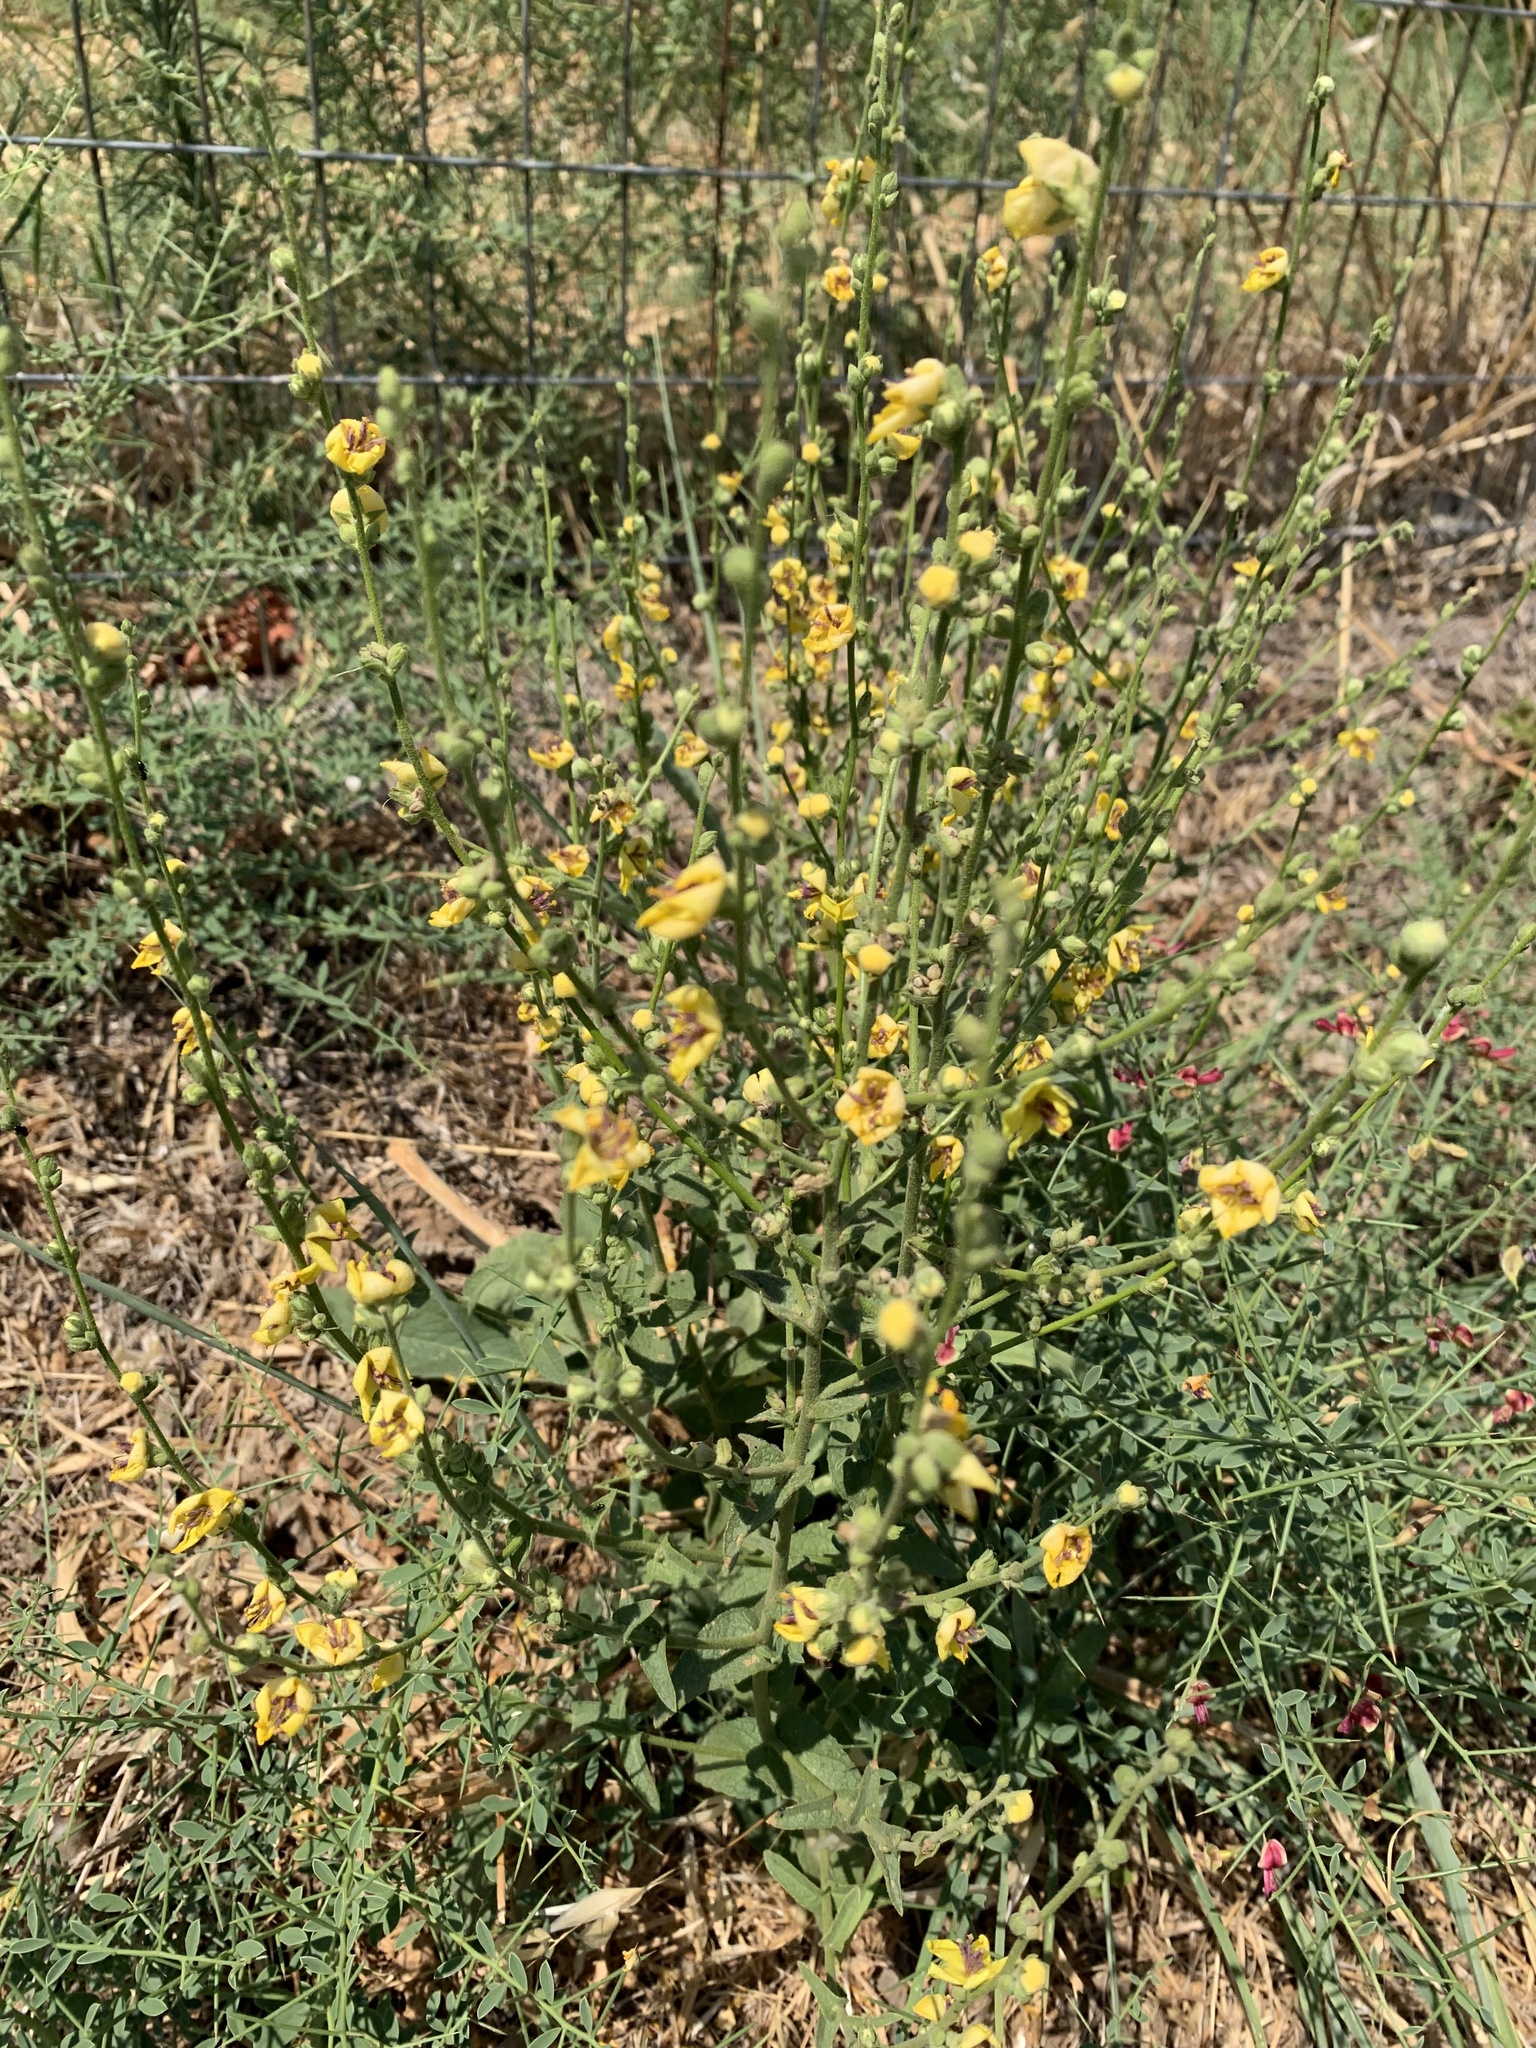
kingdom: Plantae
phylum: Tracheophyta
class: Magnoliopsida
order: Lamiales
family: Scrophulariaceae
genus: Verbascum
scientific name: Verbascum sinuatum
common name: Wavyleaf mullein
